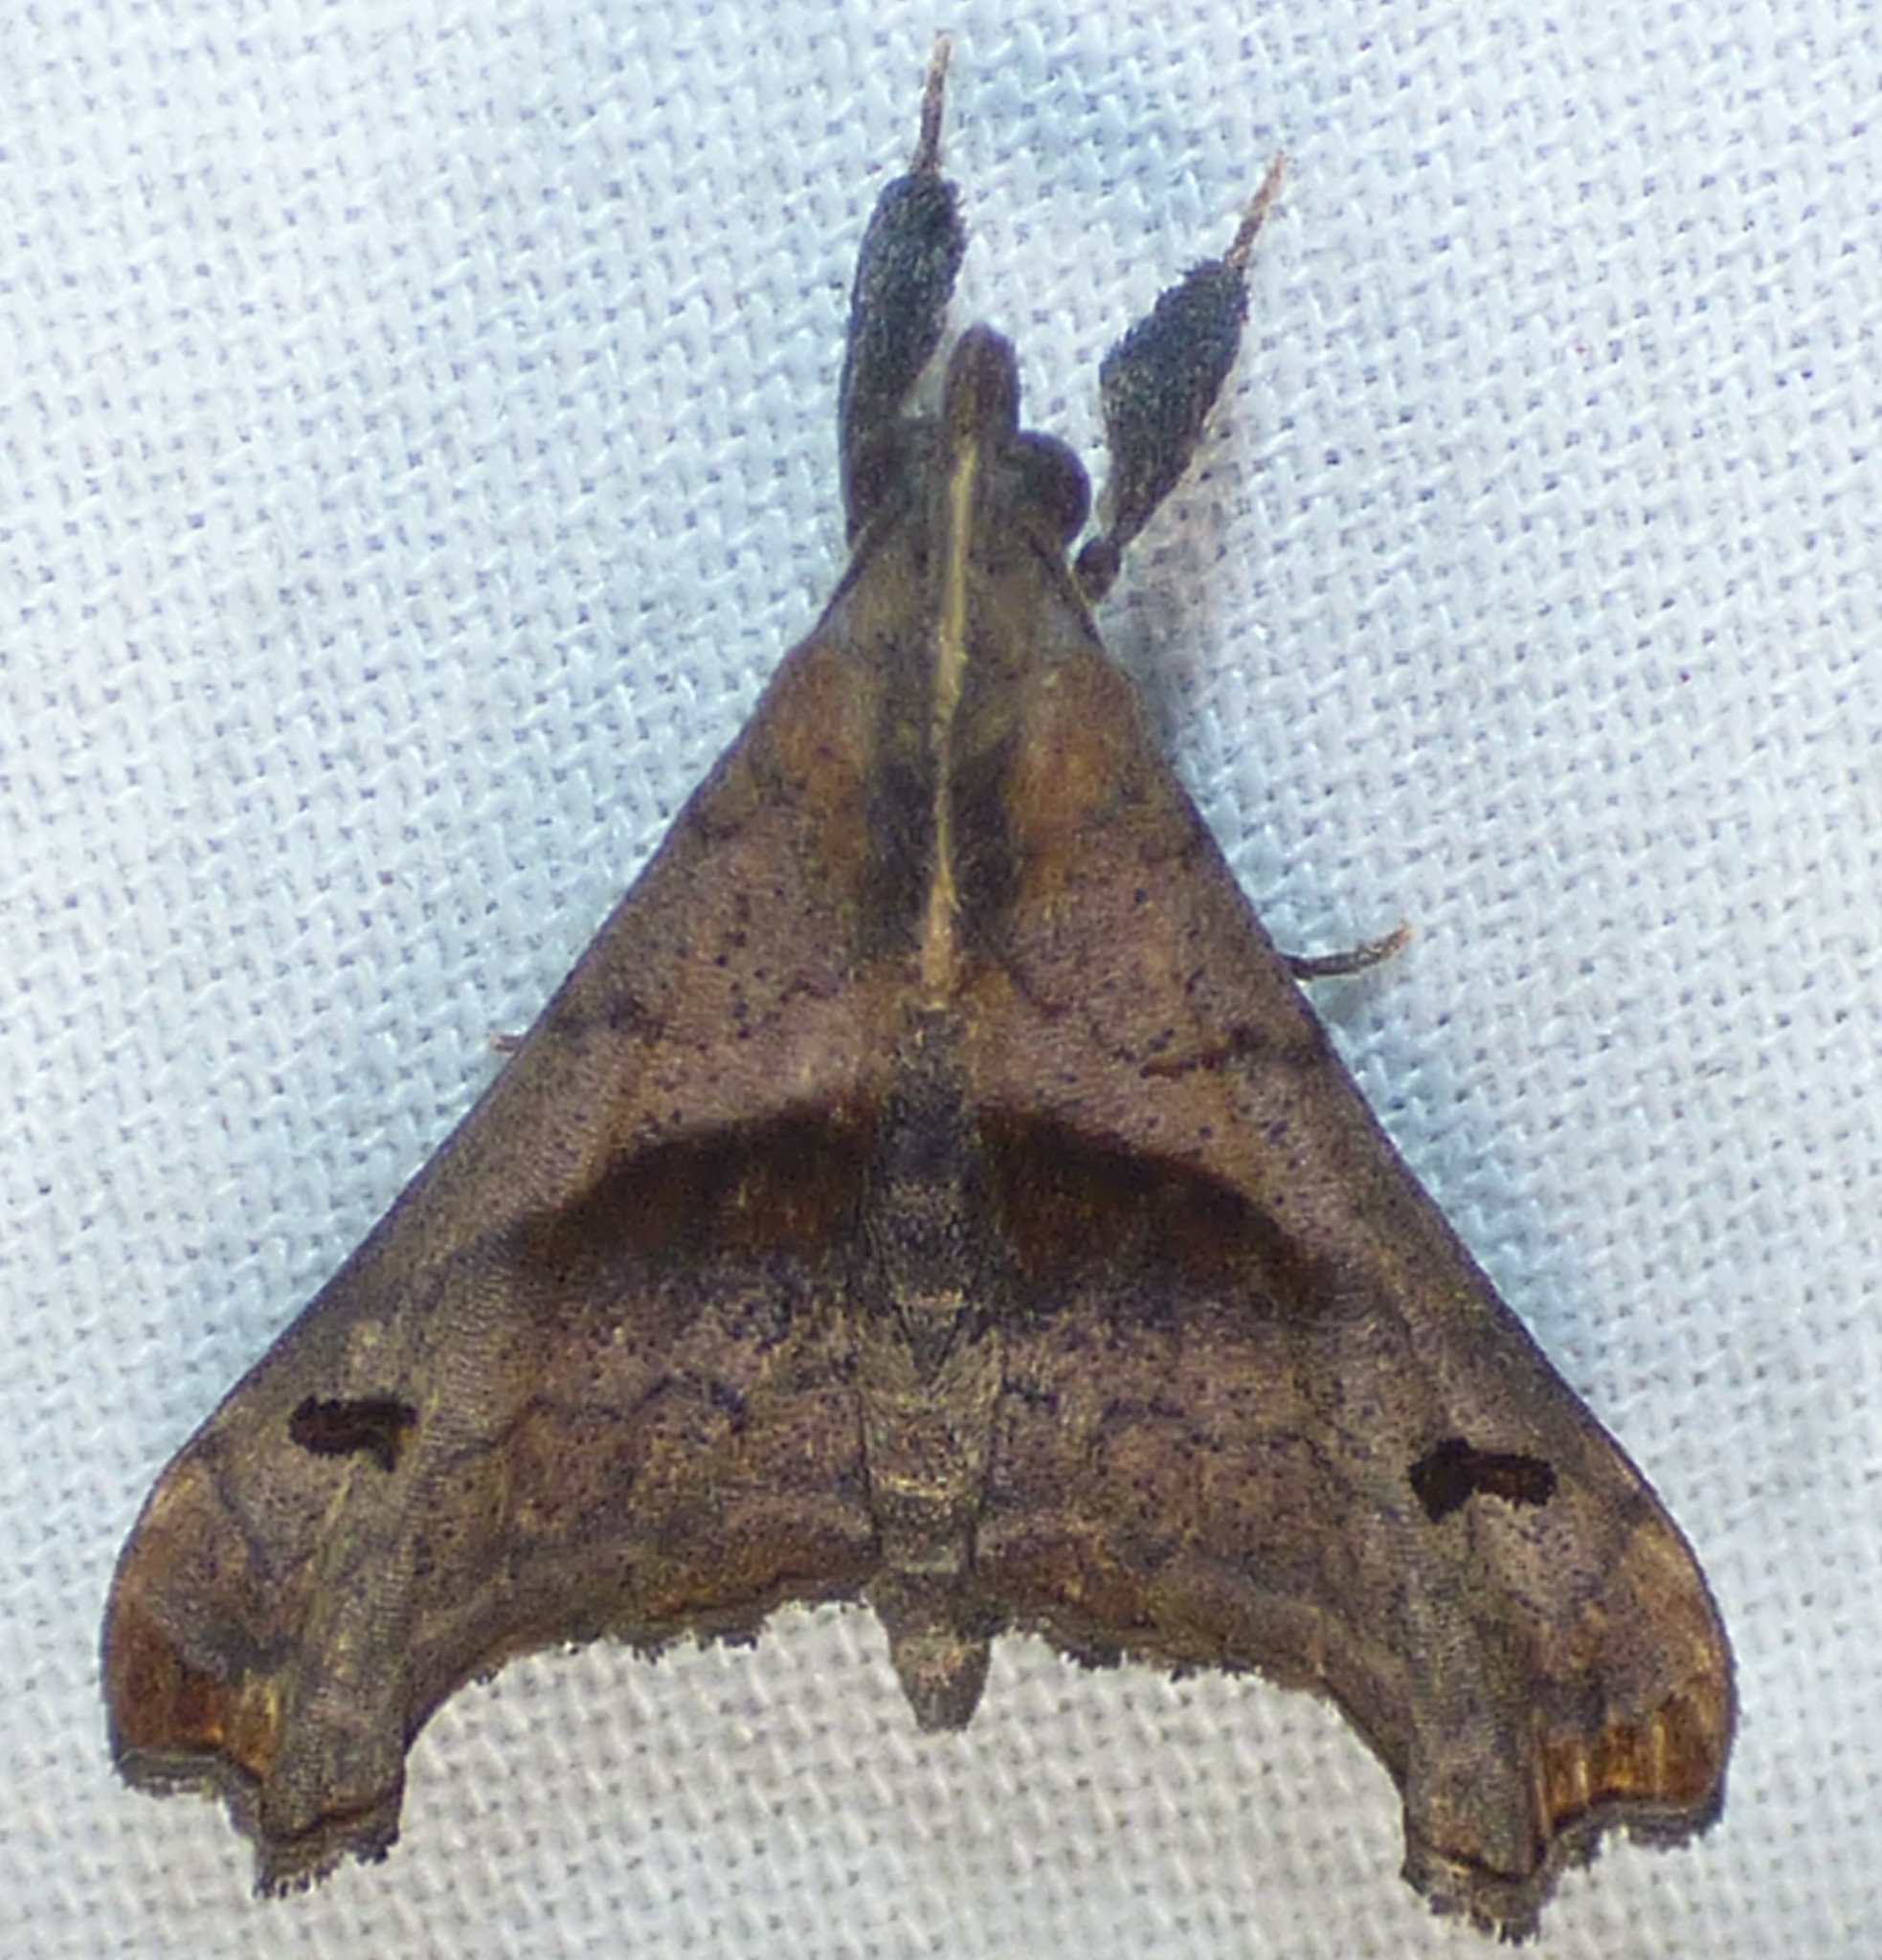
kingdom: Animalia
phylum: Arthropoda
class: Insecta
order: Lepidoptera
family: Erebidae
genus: Palthis
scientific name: Palthis angulalis
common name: Dark-spotted palthis moth
